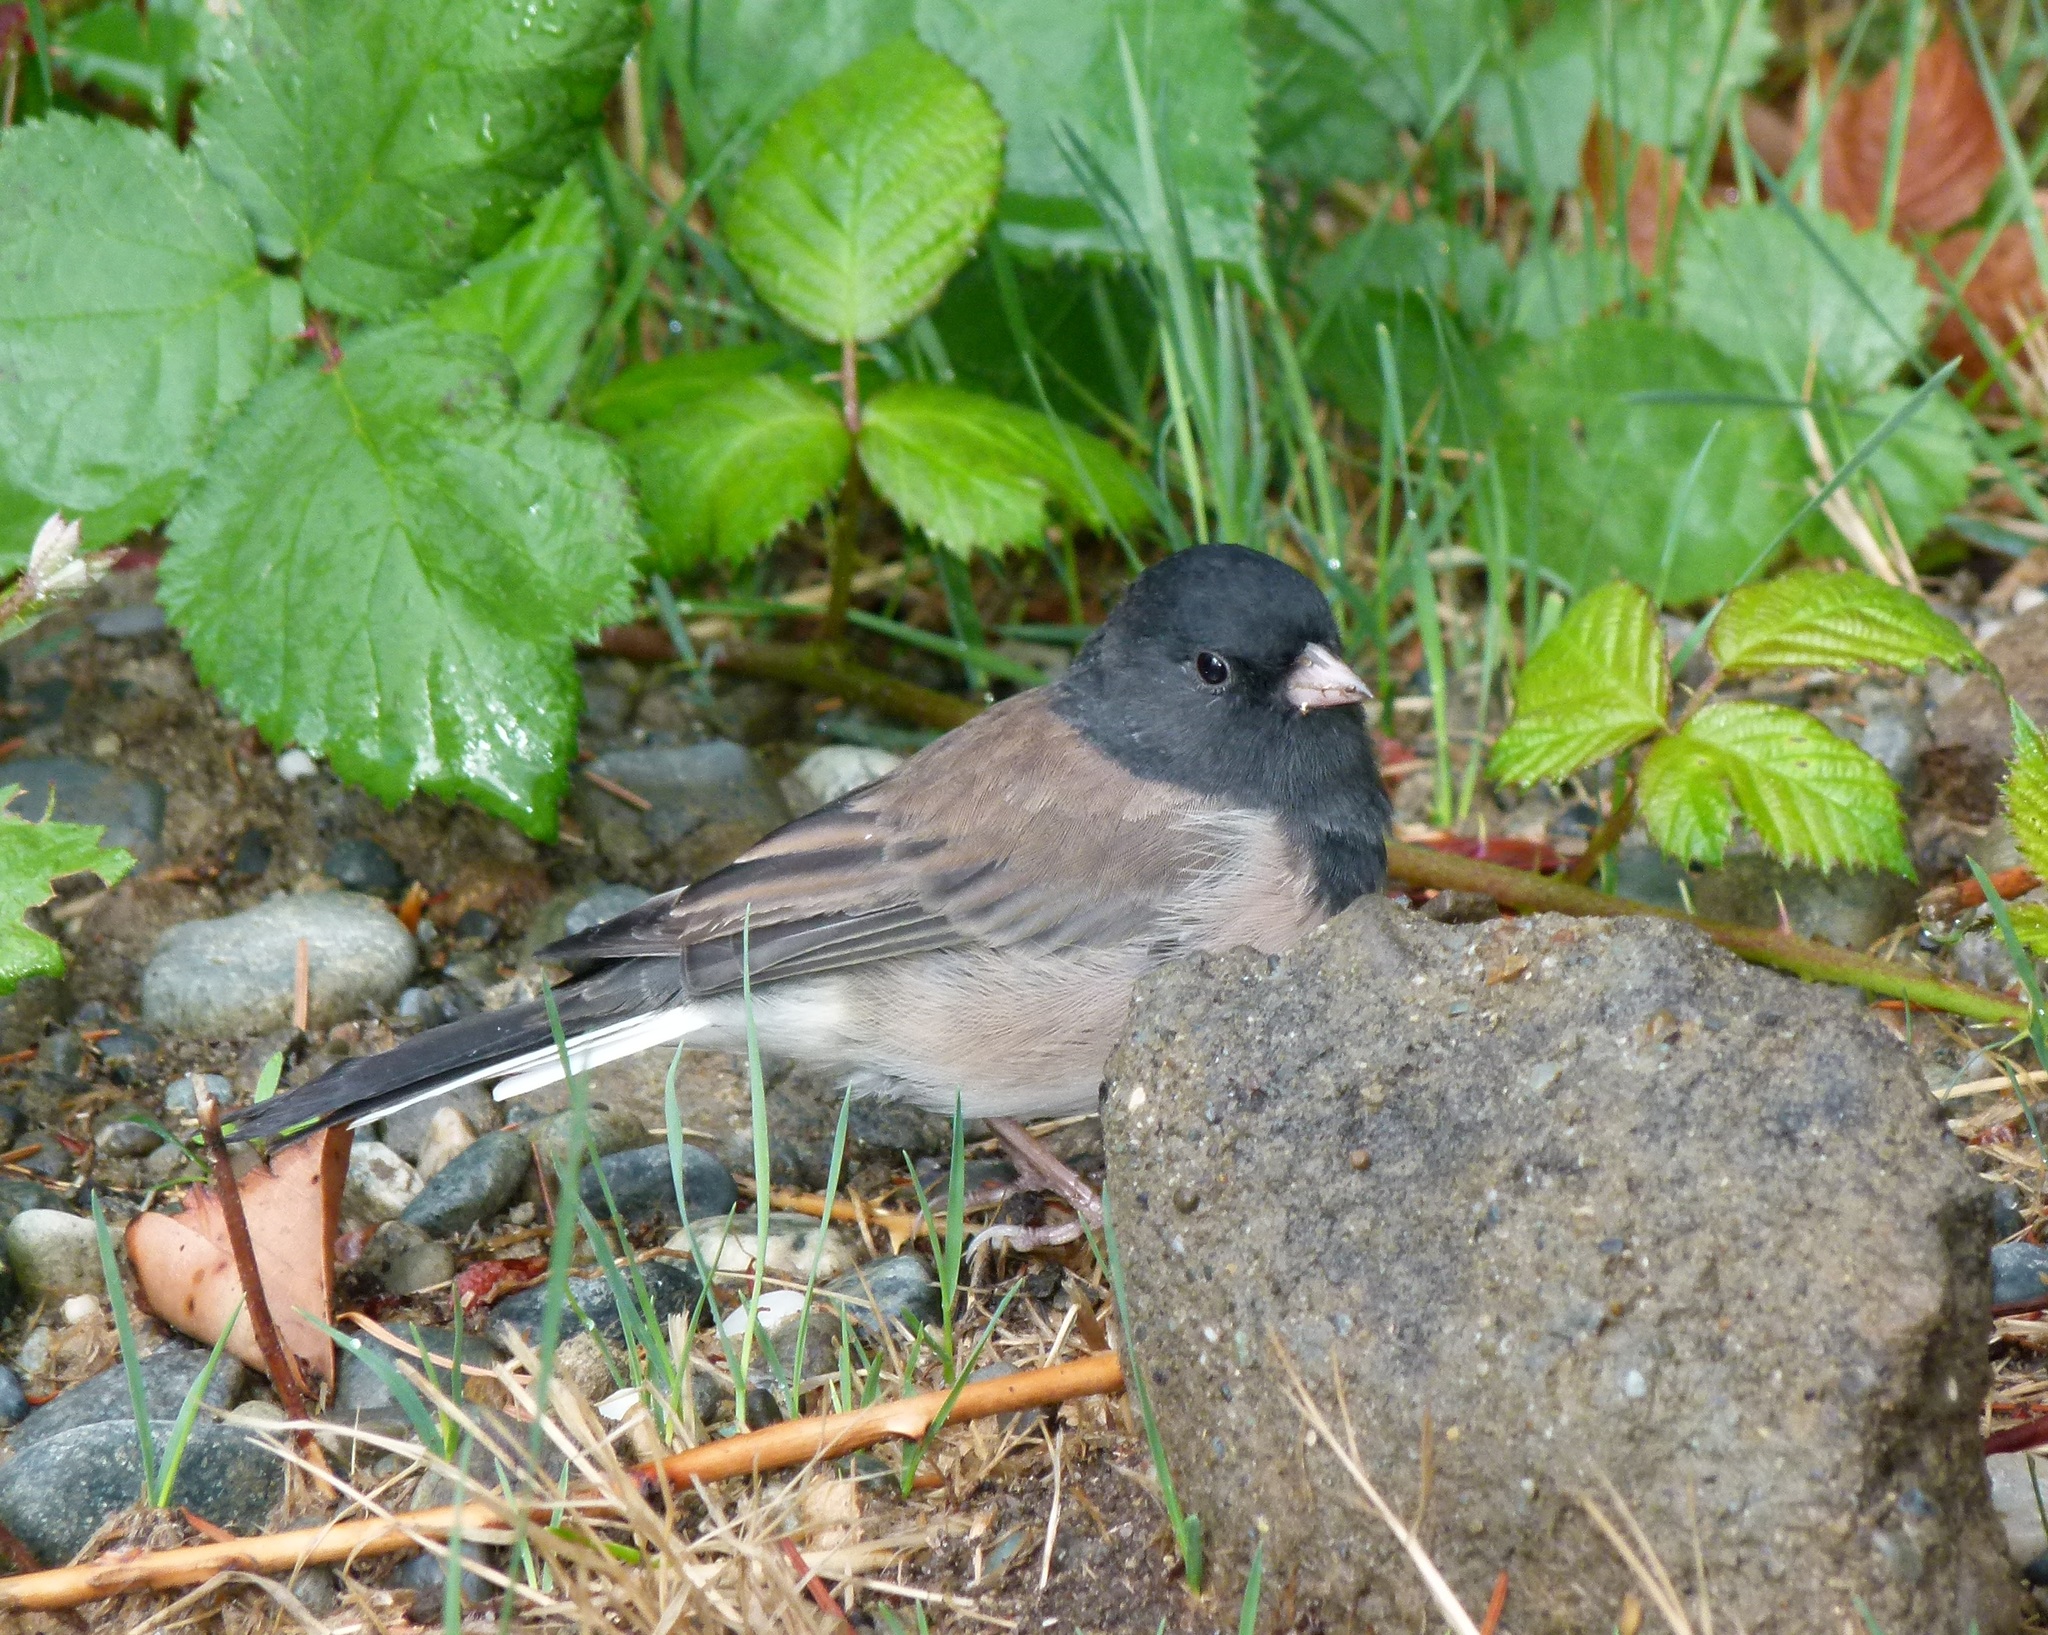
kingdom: Animalia
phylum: Chordata
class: Aves
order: Passeriformes
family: Passerellidae
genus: Junco
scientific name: Junco hyemalis
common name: Dark-eyed junco
